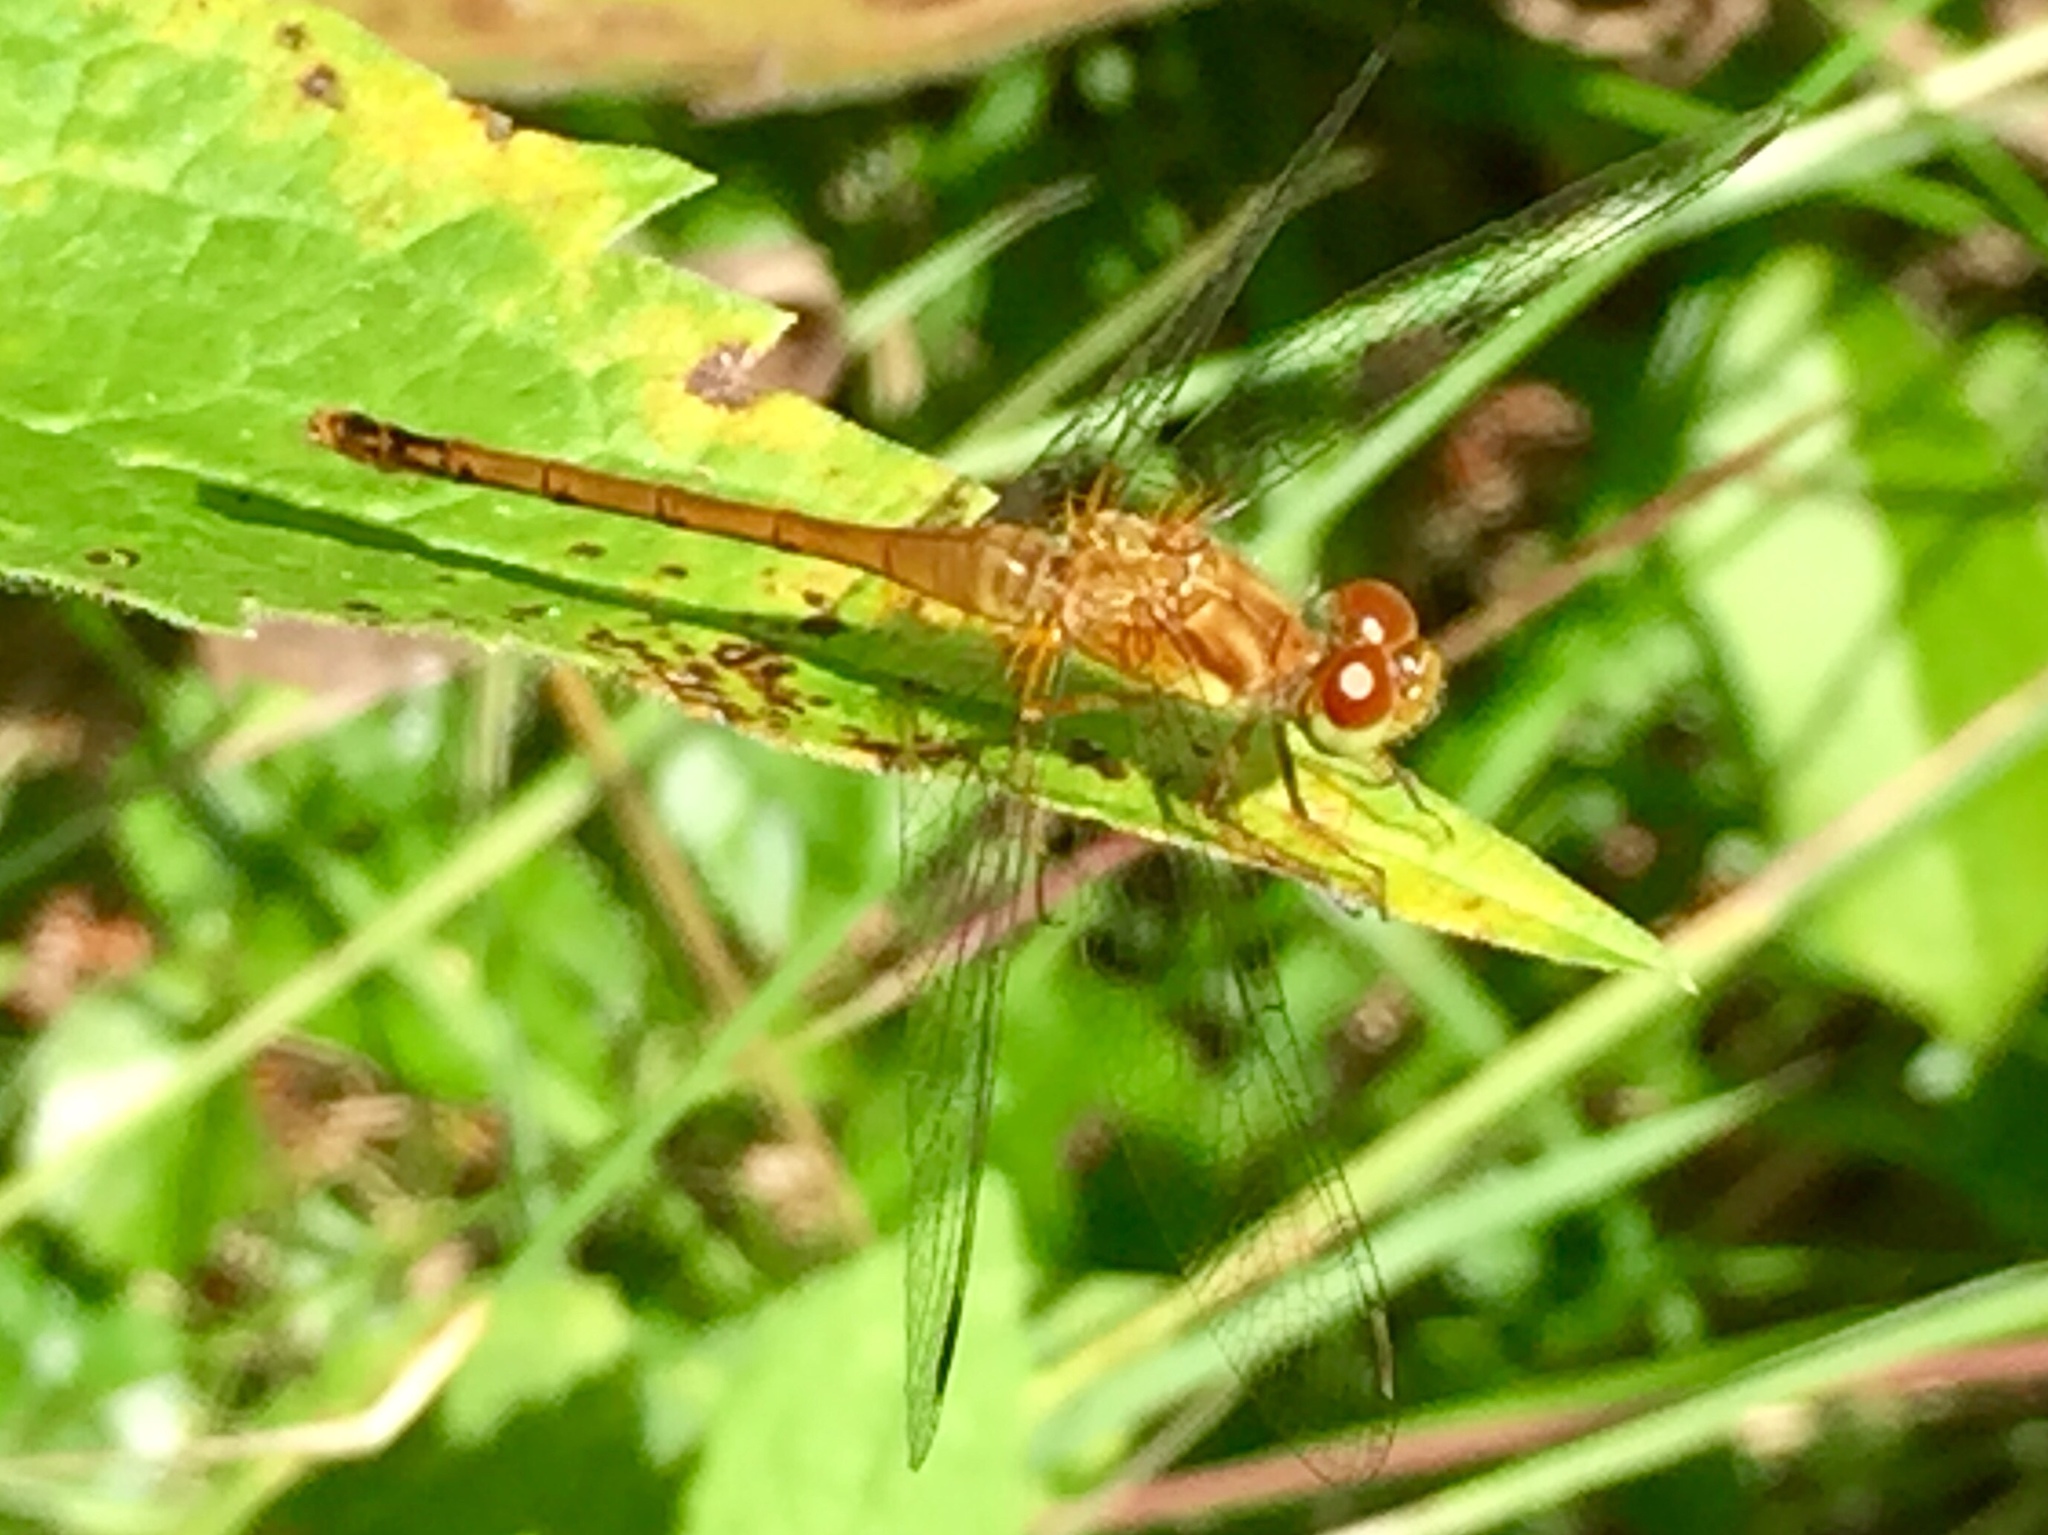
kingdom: Animalia
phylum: Arthropoda
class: Insecta
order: Odonata
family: Libellulidae
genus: Sympetrum
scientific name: Sympetrum vicinum
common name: Autumn meadowhawk
